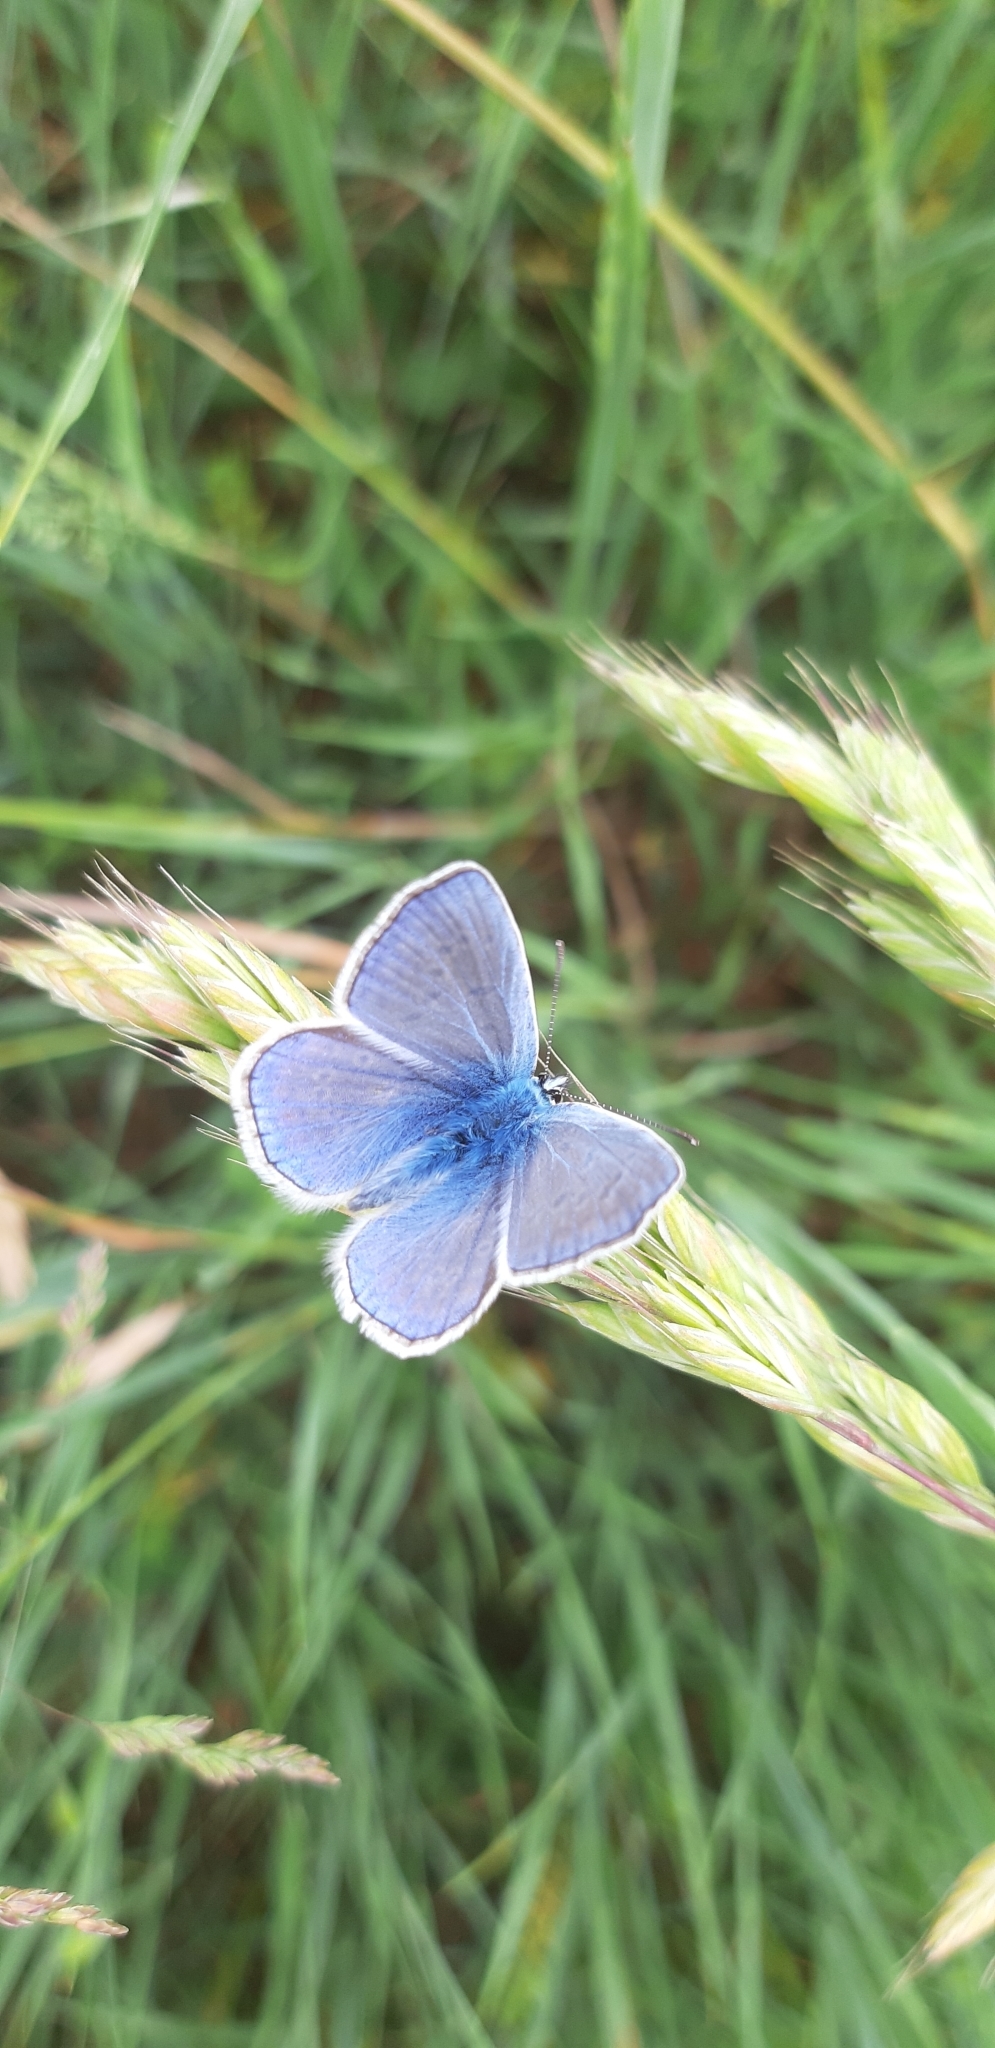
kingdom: Animalia
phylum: Arthropoda
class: Insecta
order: Lepidoptera
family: Lycaenidae
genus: Polyommatus
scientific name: Polyommatus icarus
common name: Common blue
